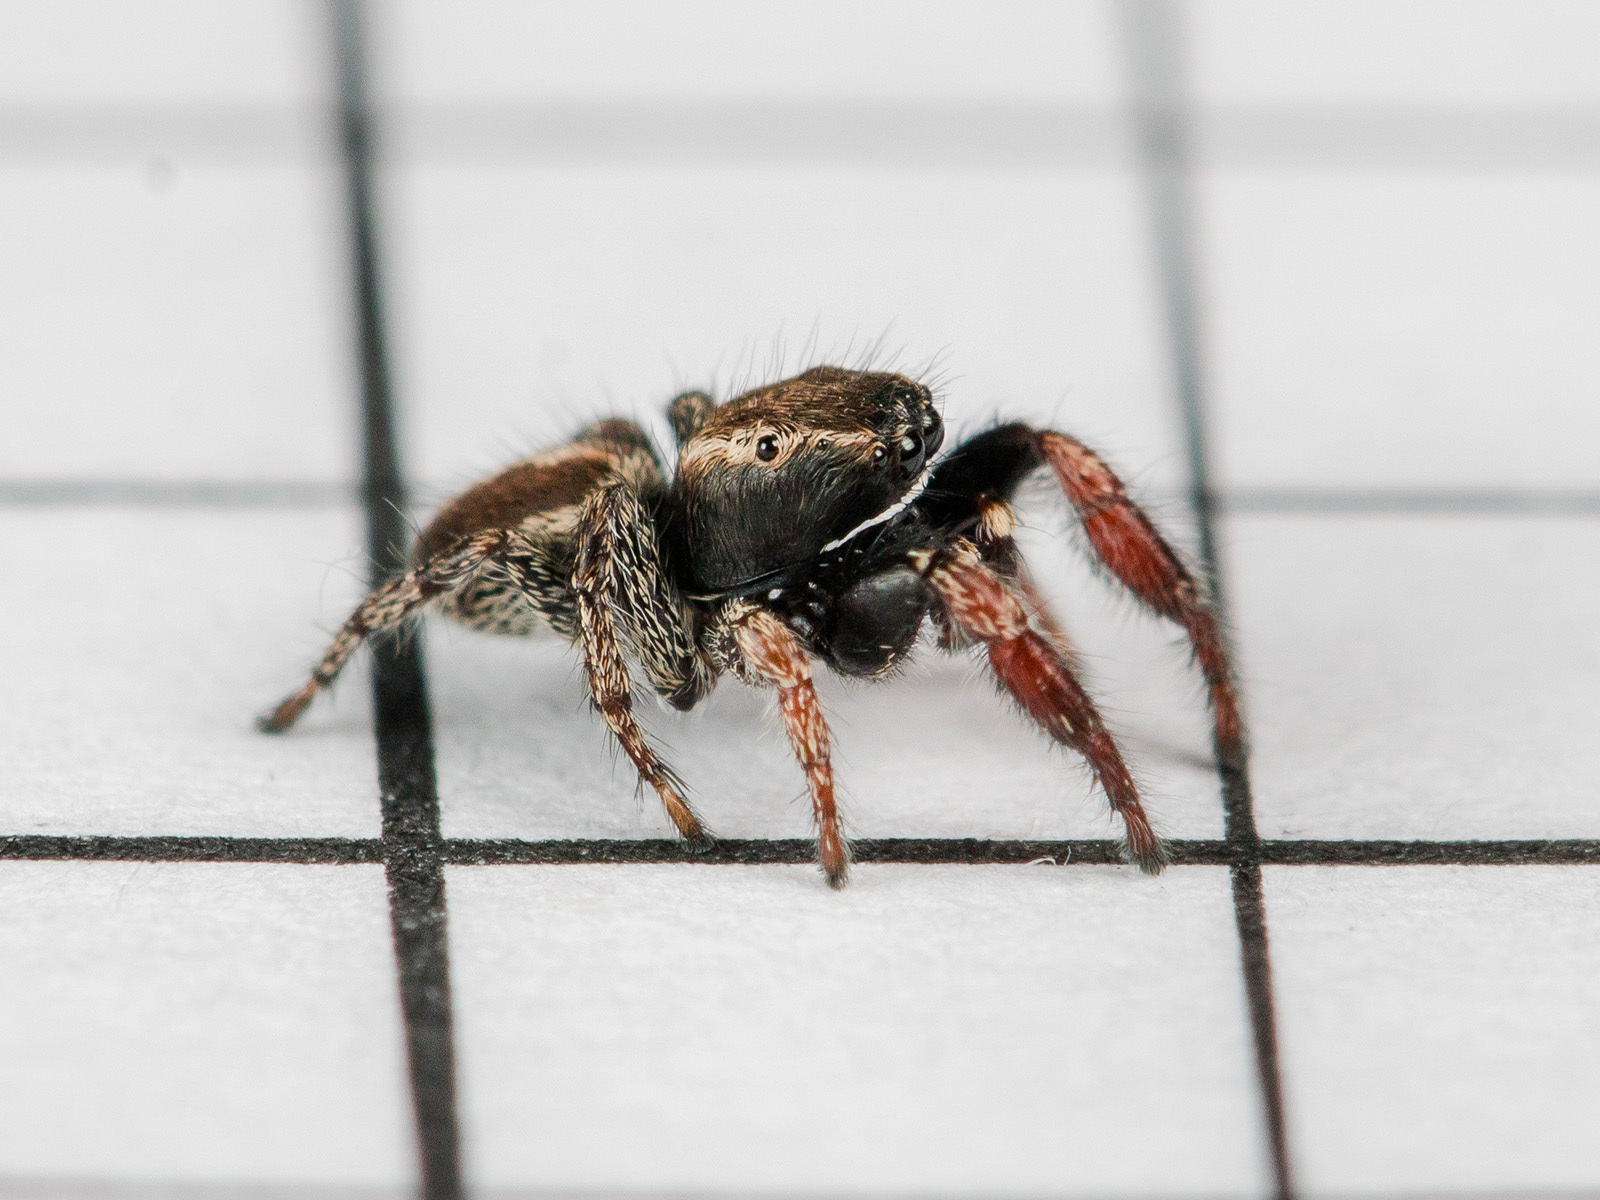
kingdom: Animalia
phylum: Arthropoda
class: Arachnida
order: Araneae
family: Salticidae
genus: Pellenes
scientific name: Pellenes epularis
